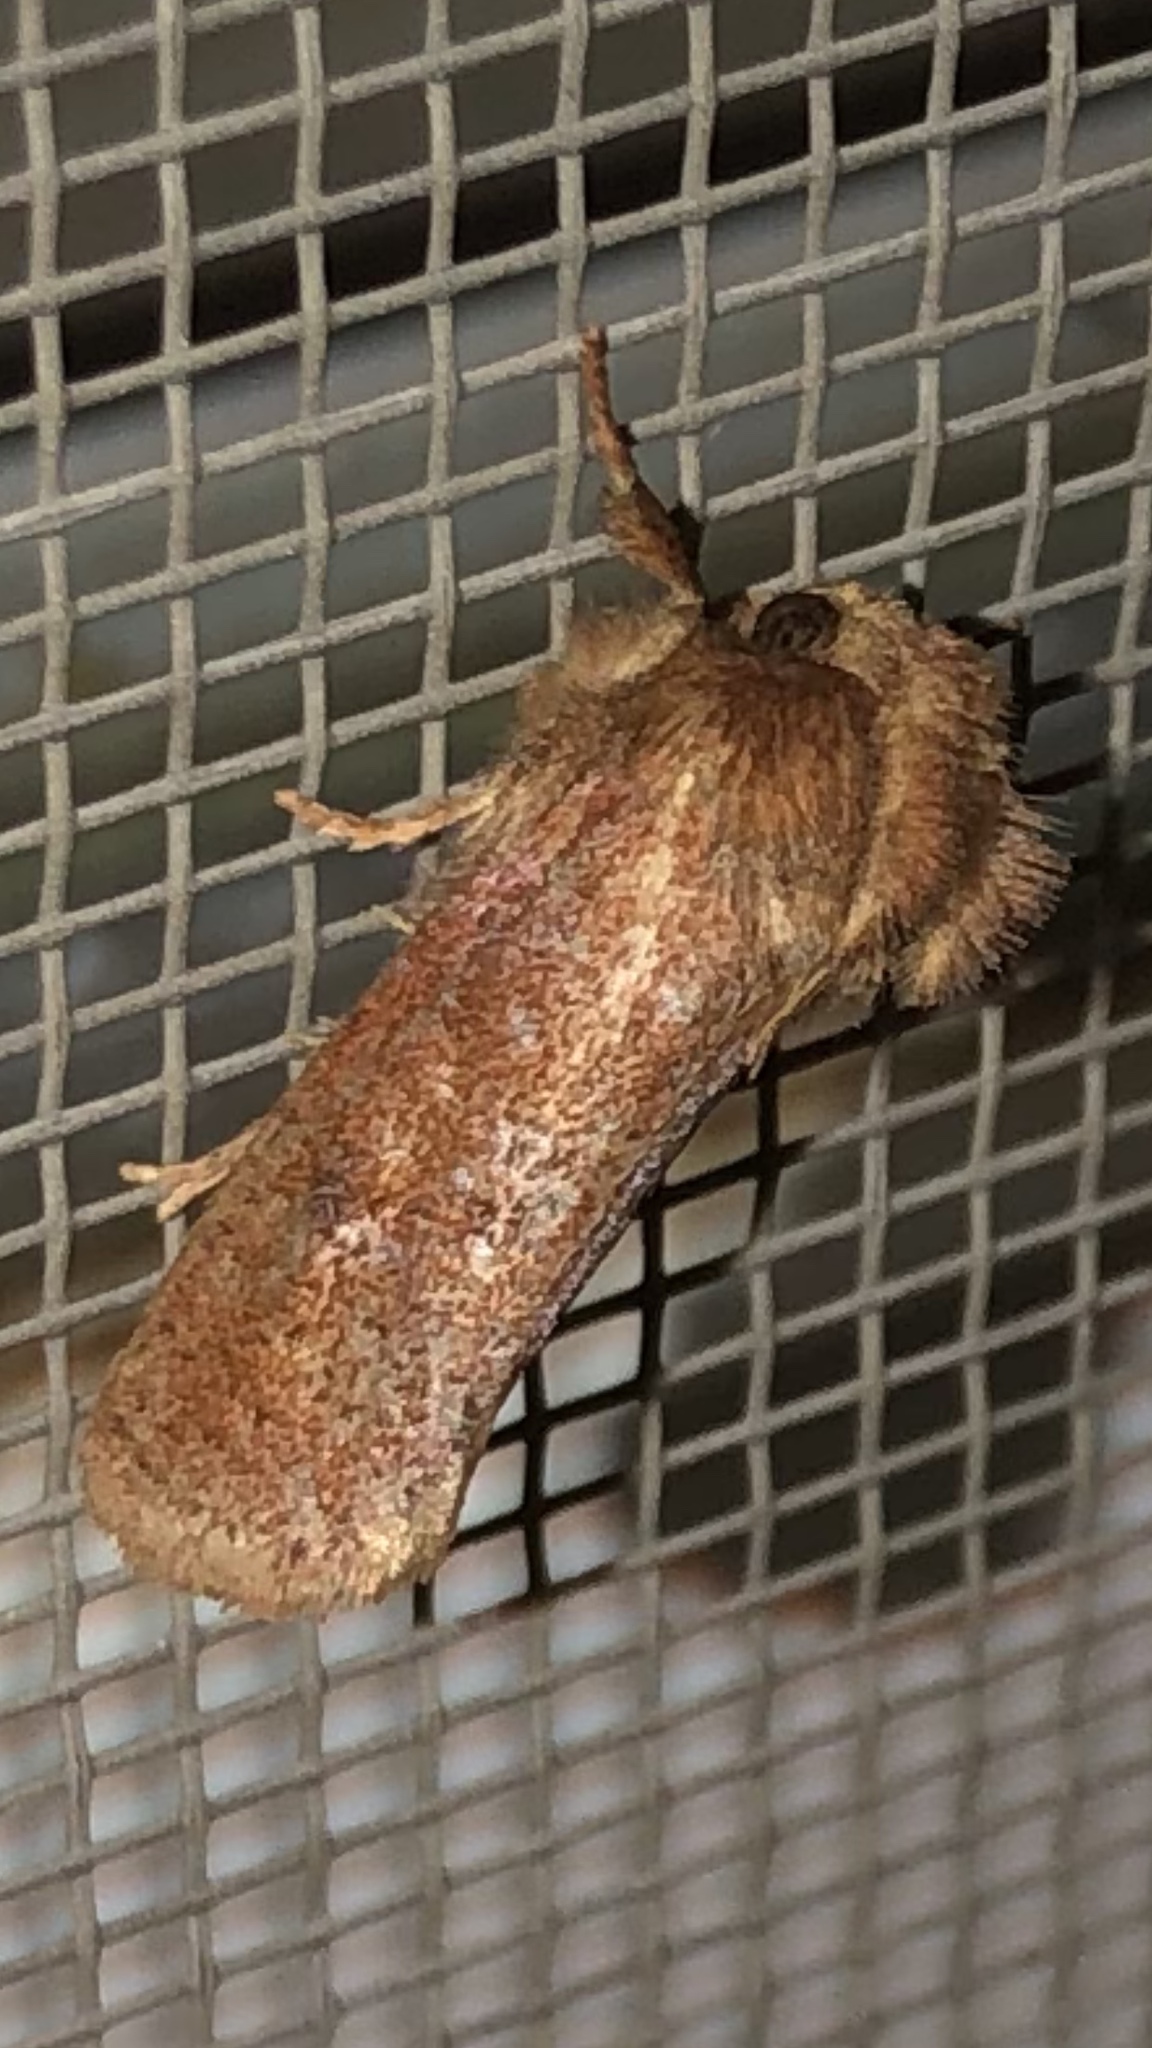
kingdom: Animalia
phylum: Arthropoda
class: Insecta
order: Lepidoptera
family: Tineidae
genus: Acrolophus
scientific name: Acrolophus plumifrontella
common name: Eastern grass tubeworm moth
